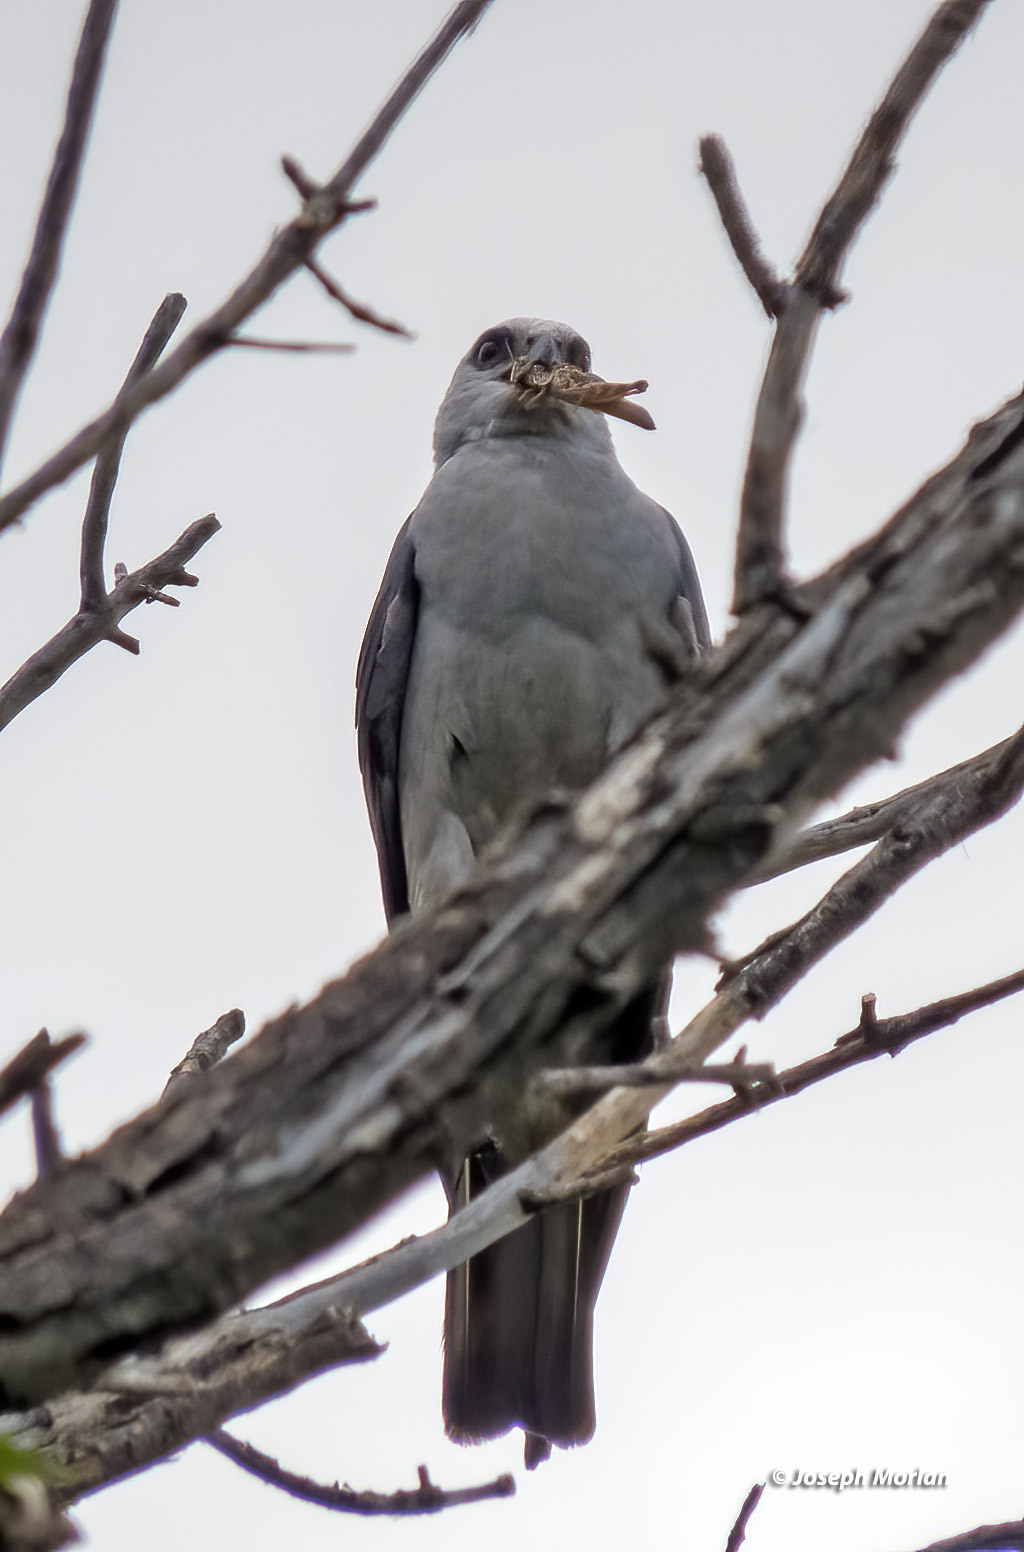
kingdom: Animalia
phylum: Chordata
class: Aves
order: Accipitriformes
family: Accipitridae
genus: Ictinia
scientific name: Ictinia mississippiensis
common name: Mississippi kite
